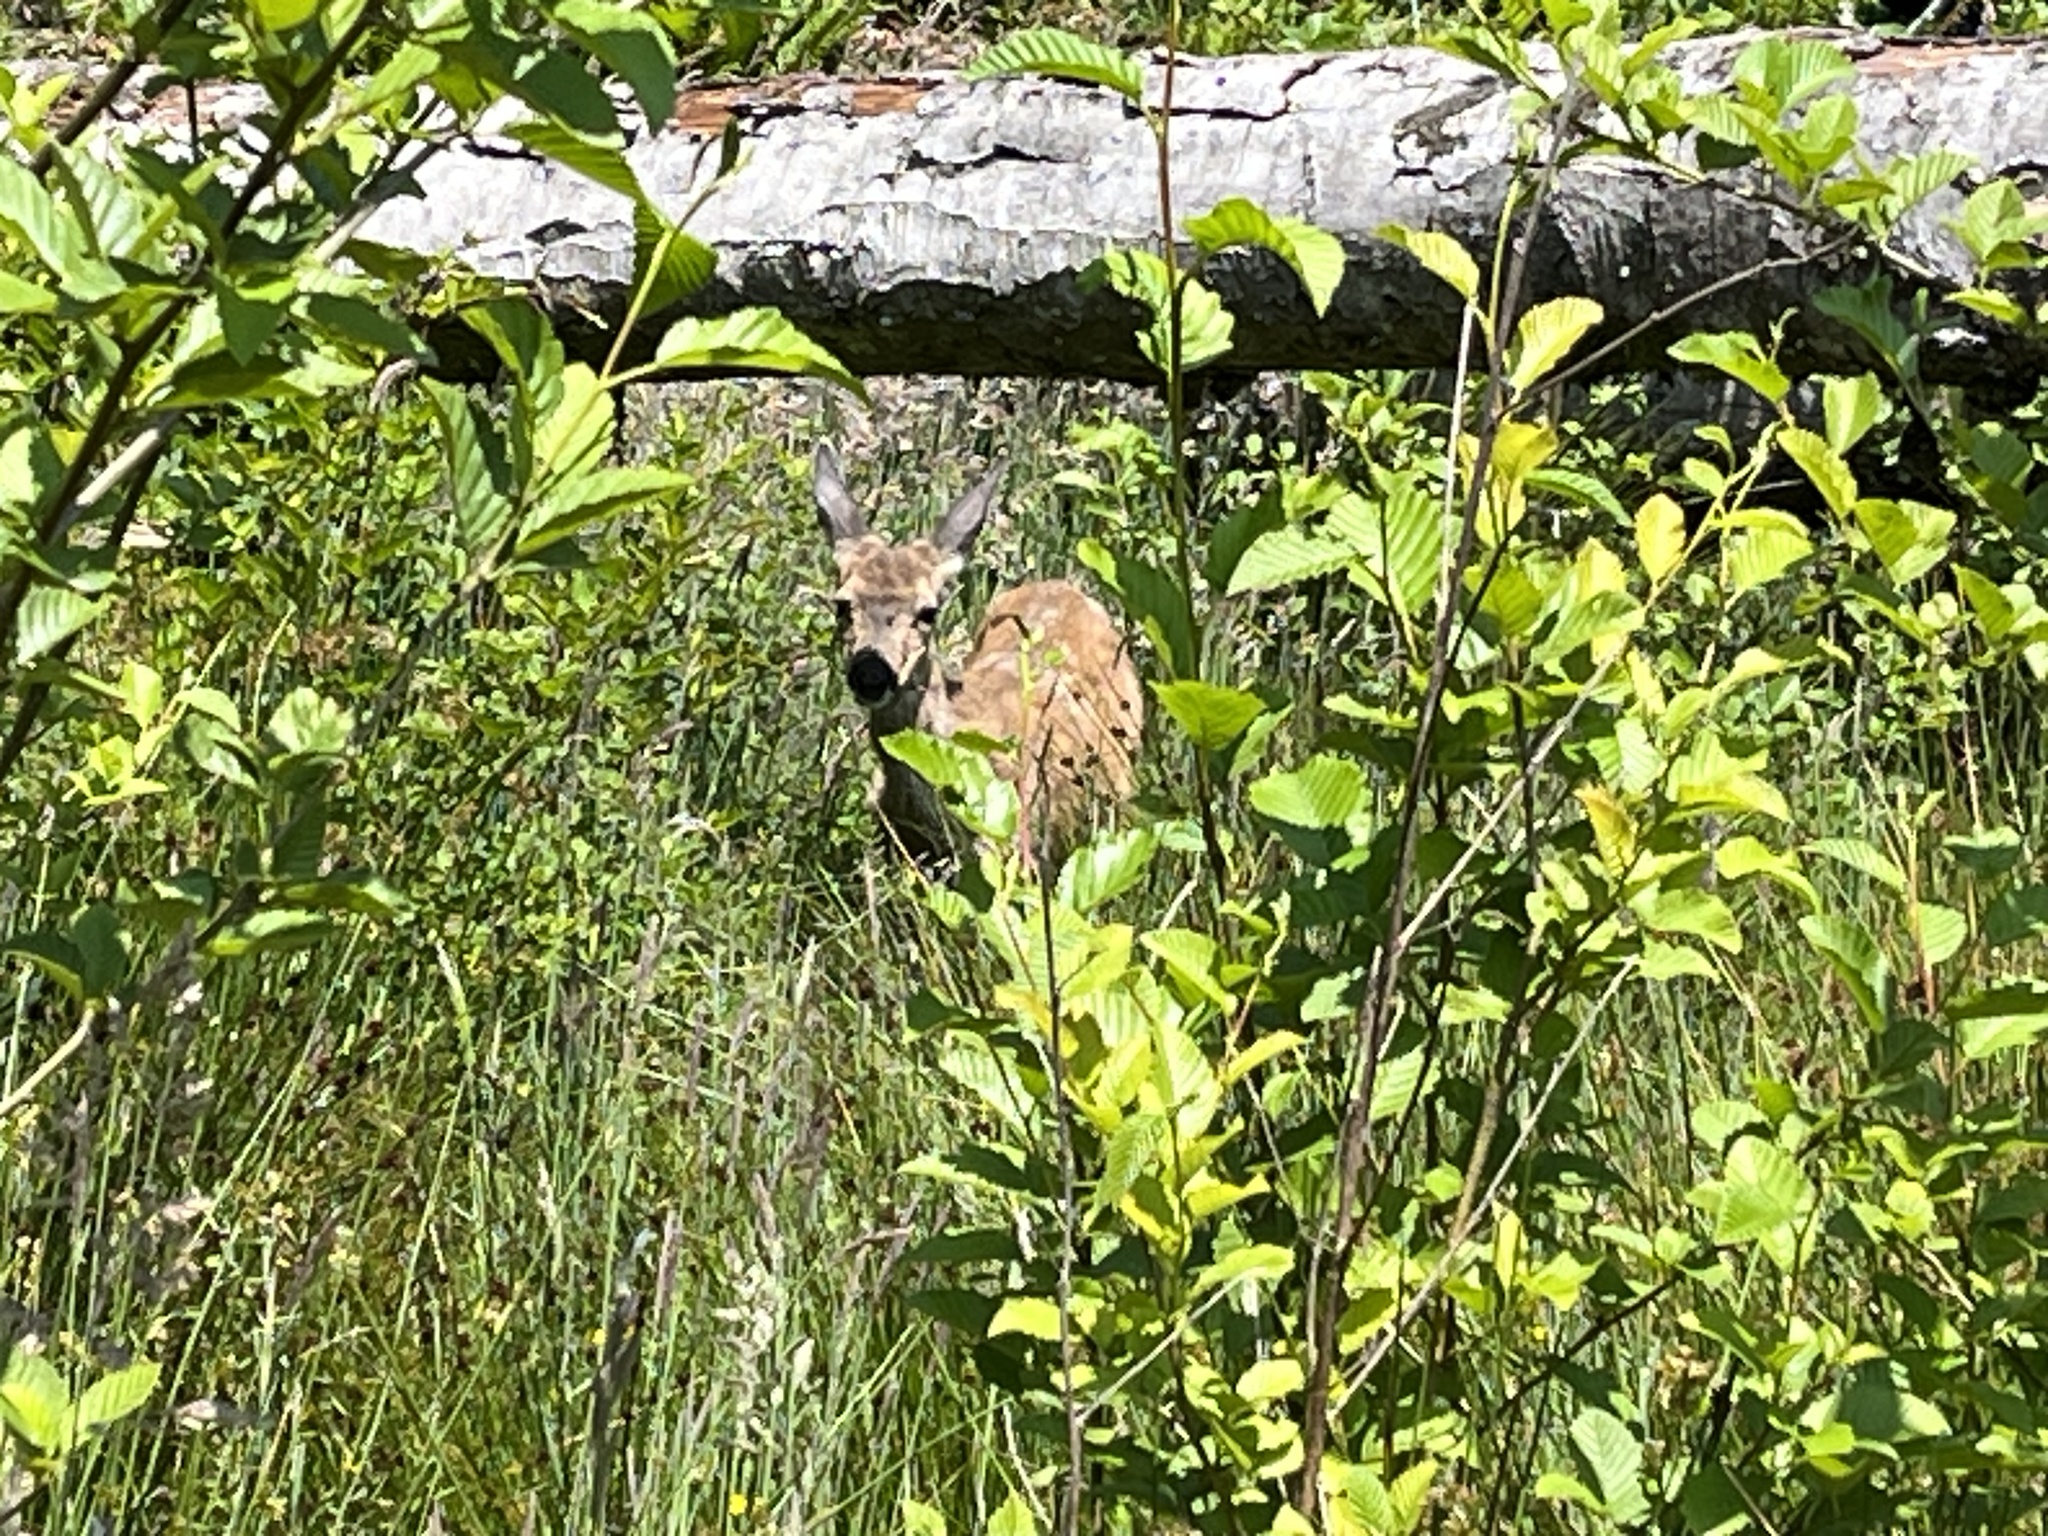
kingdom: Animalia
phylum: Chordata
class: Mammalia
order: Artiodactyla
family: Cervidae
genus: Odocoileus
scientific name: Odocoileus hemionus
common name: Mule deer
